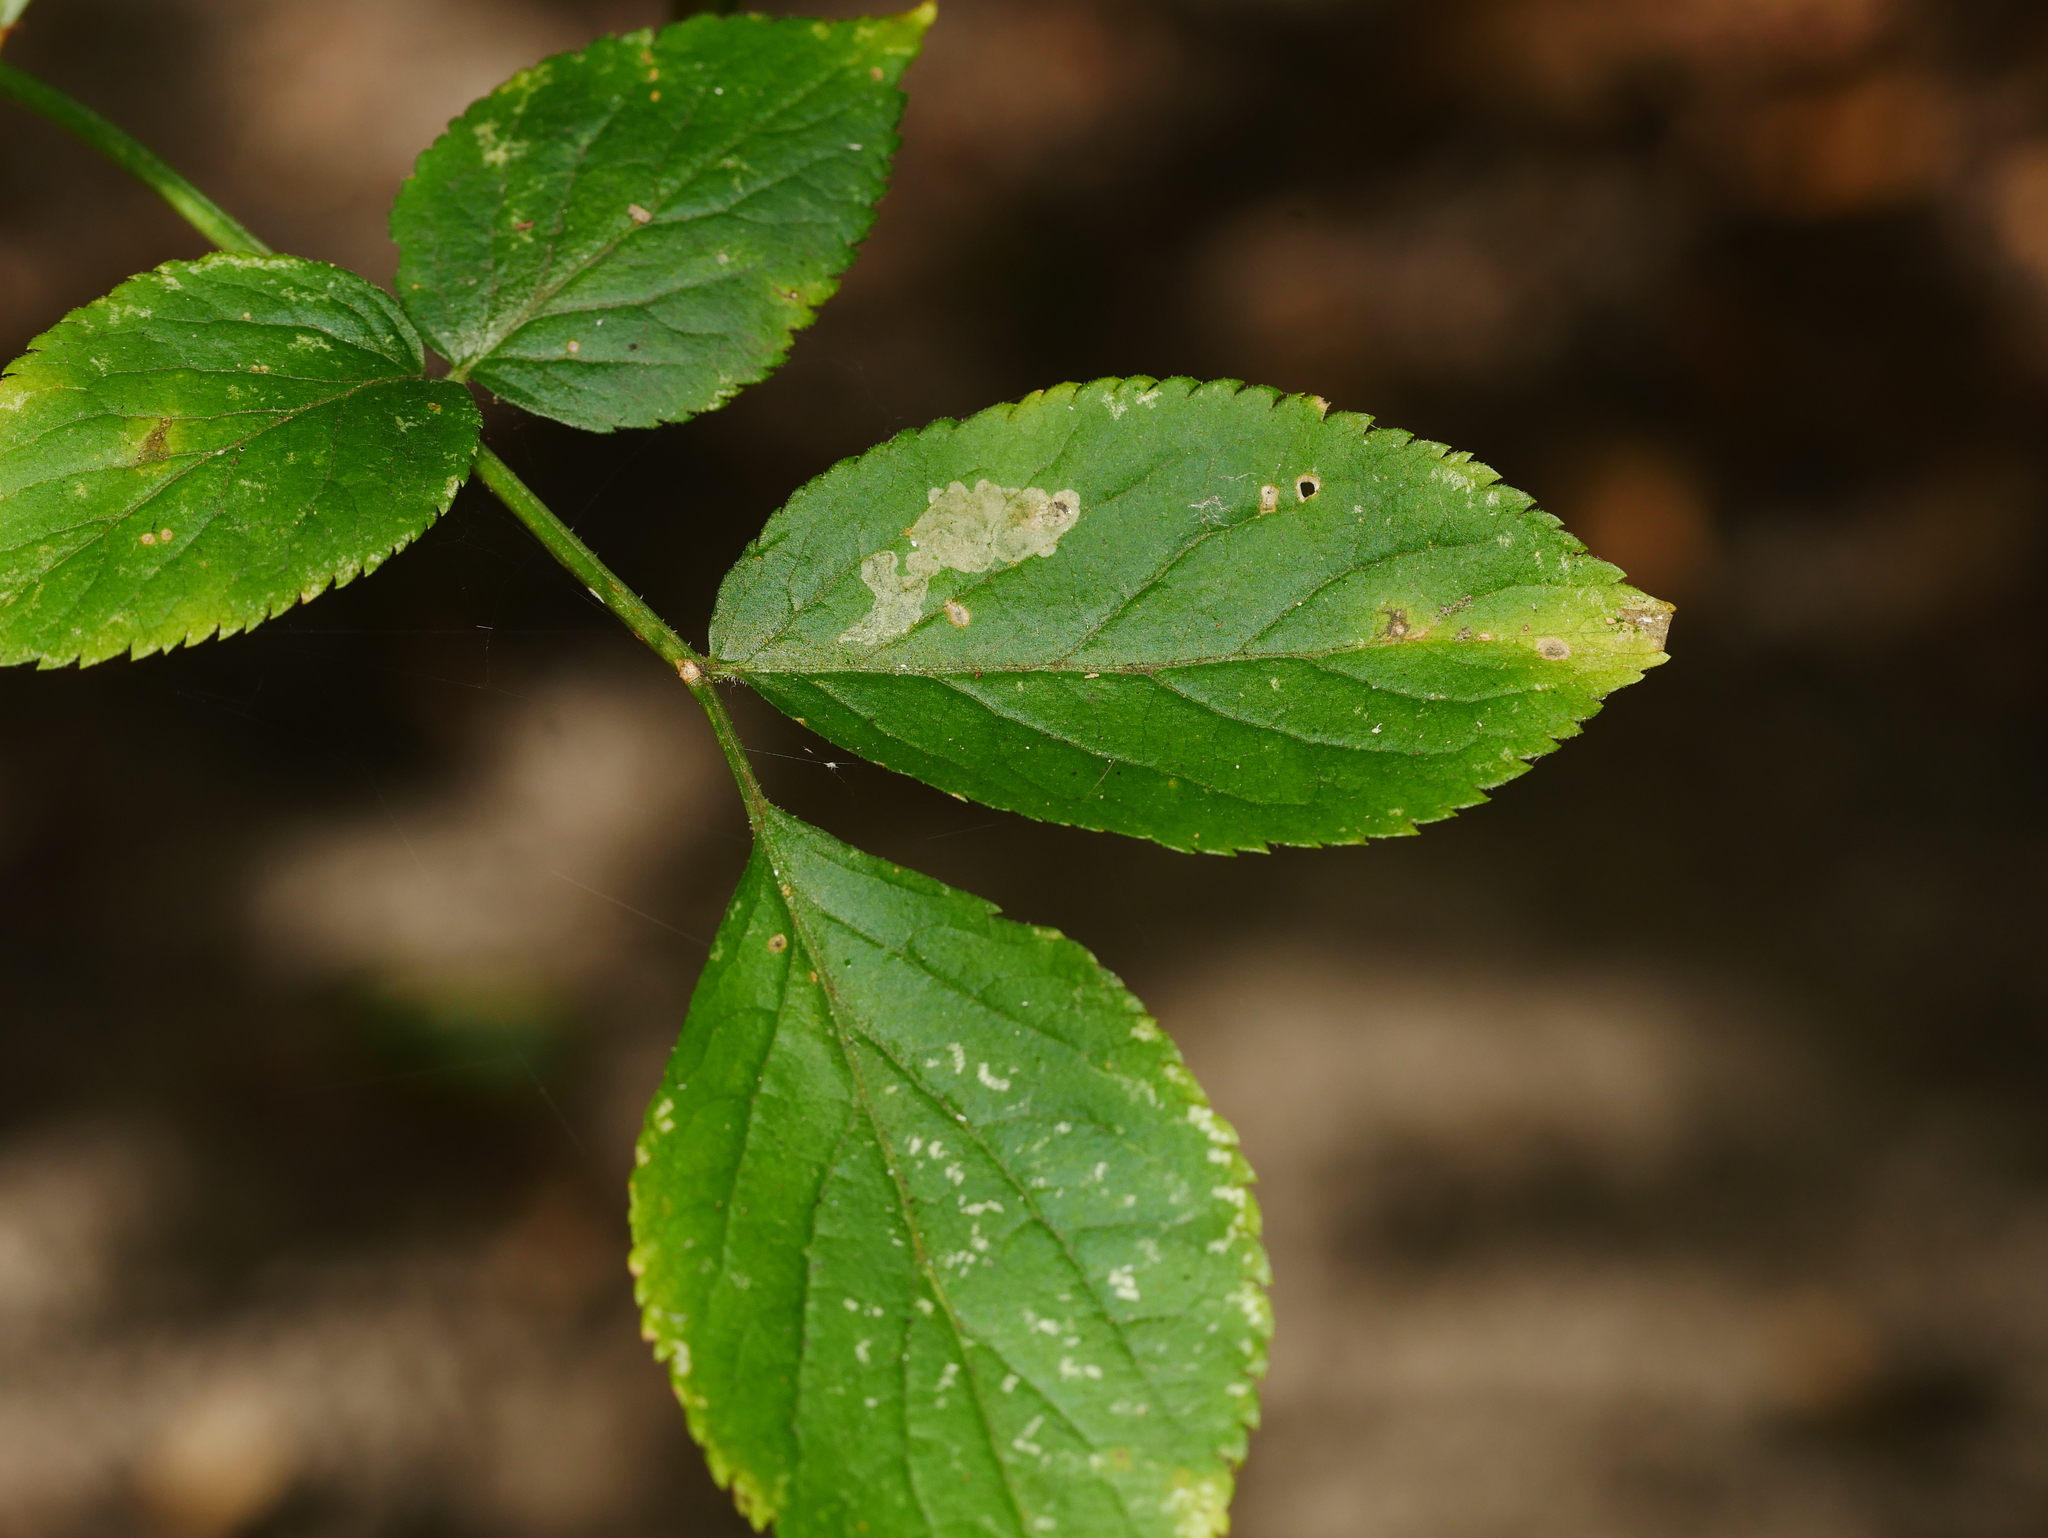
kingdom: Plantae
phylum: Tracheophyta
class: Magnoliopsida
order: Dipsacales
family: Viburnaceae
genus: Sambucus
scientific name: Sambucus nigra
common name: Elder
